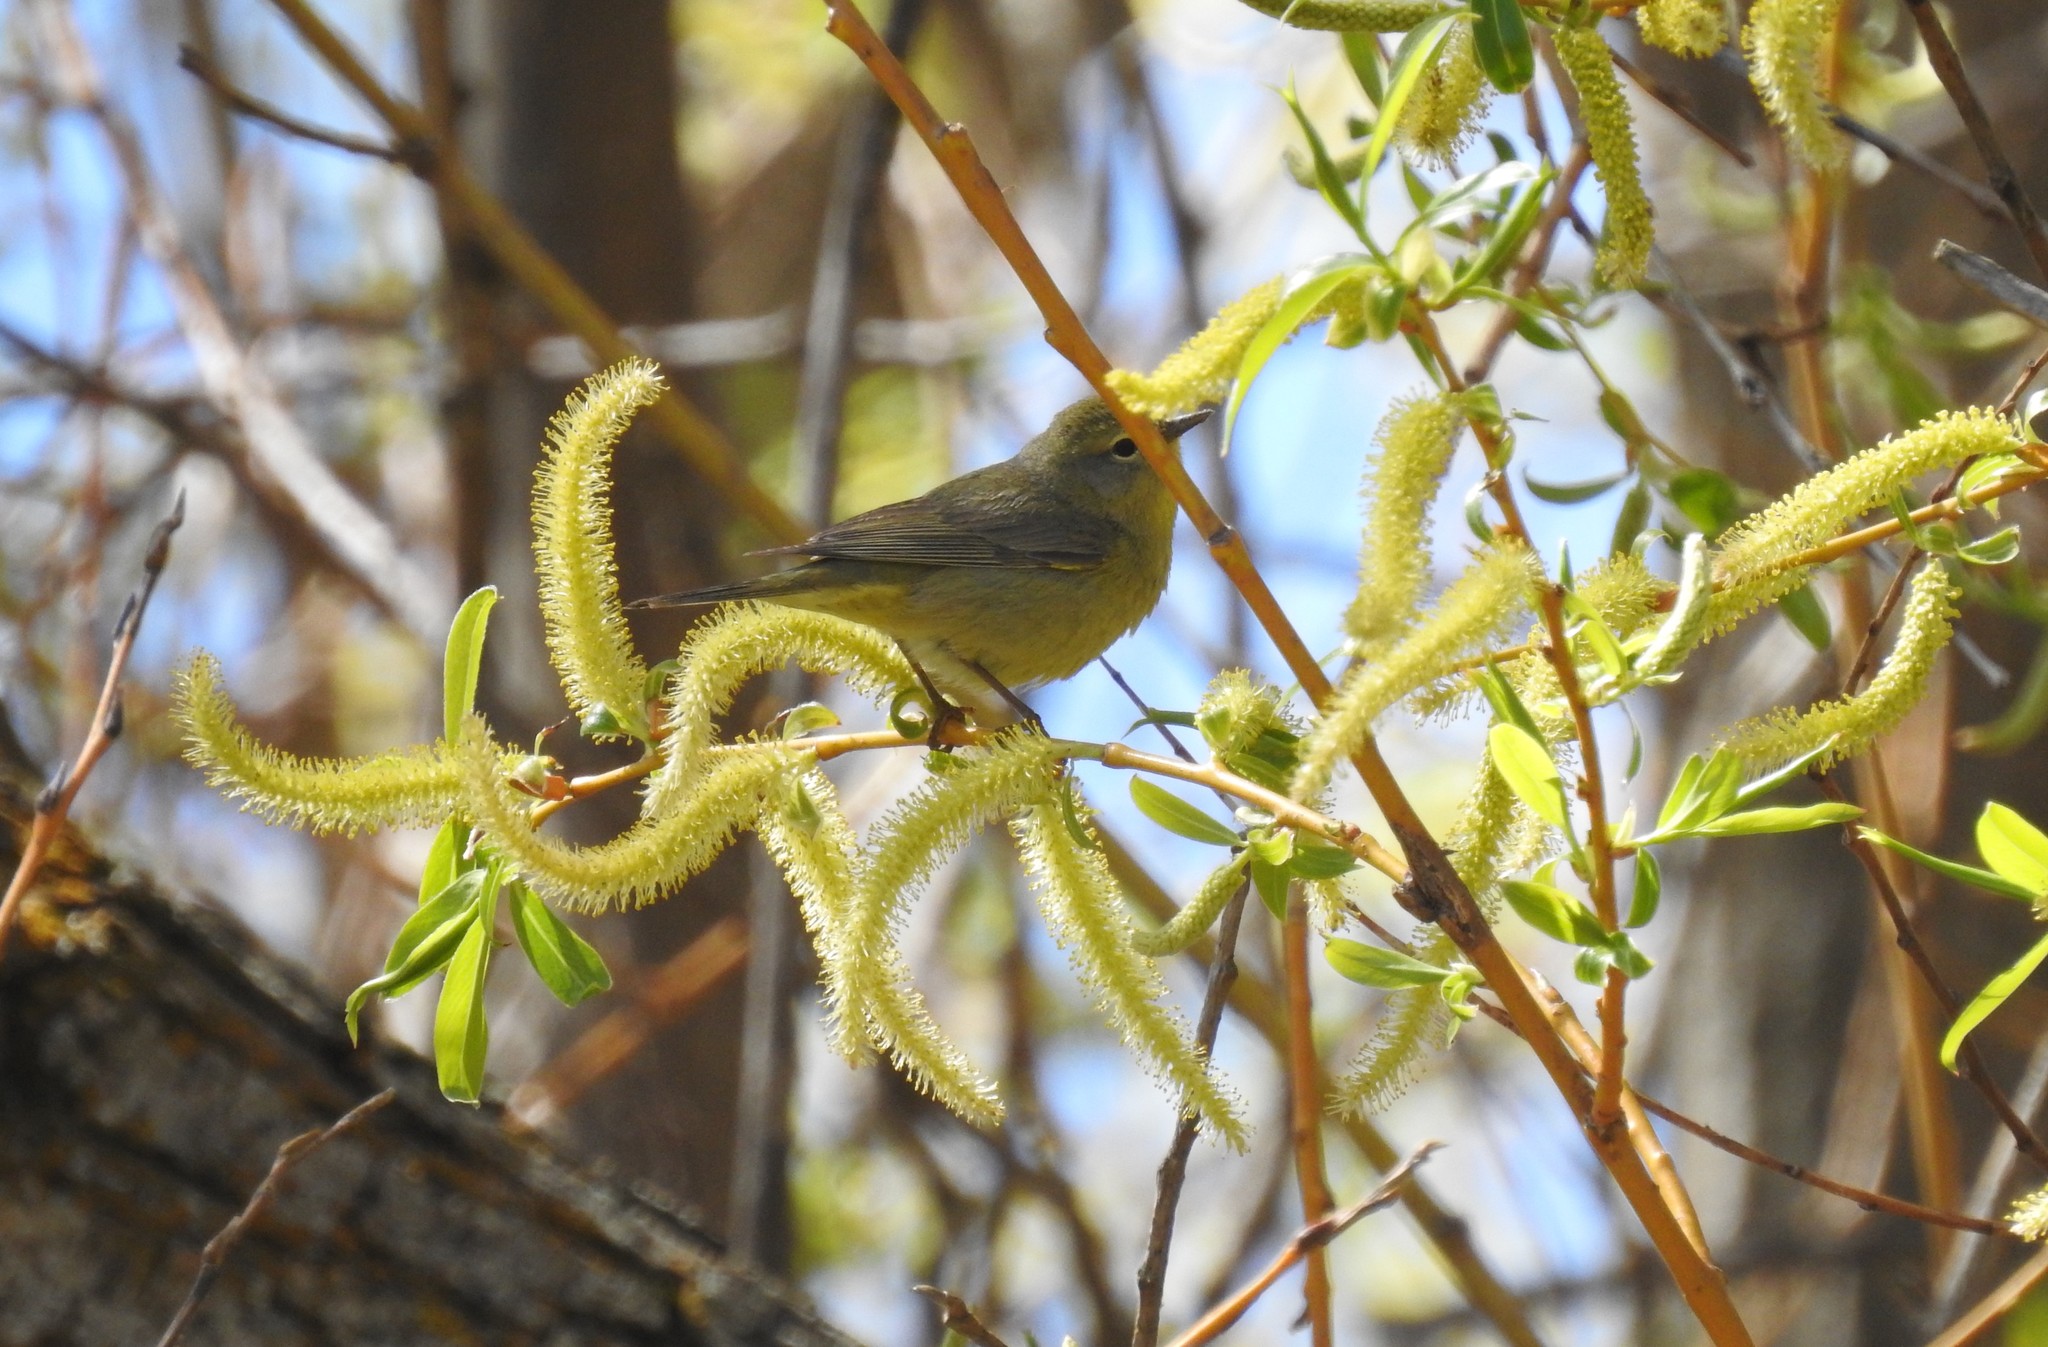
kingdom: Animalia
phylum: Chordata
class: Aves
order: Passeriformes
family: Parulidae
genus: Leiothlypis
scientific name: Leiothlypis celata
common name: Orange-crowned warbler
